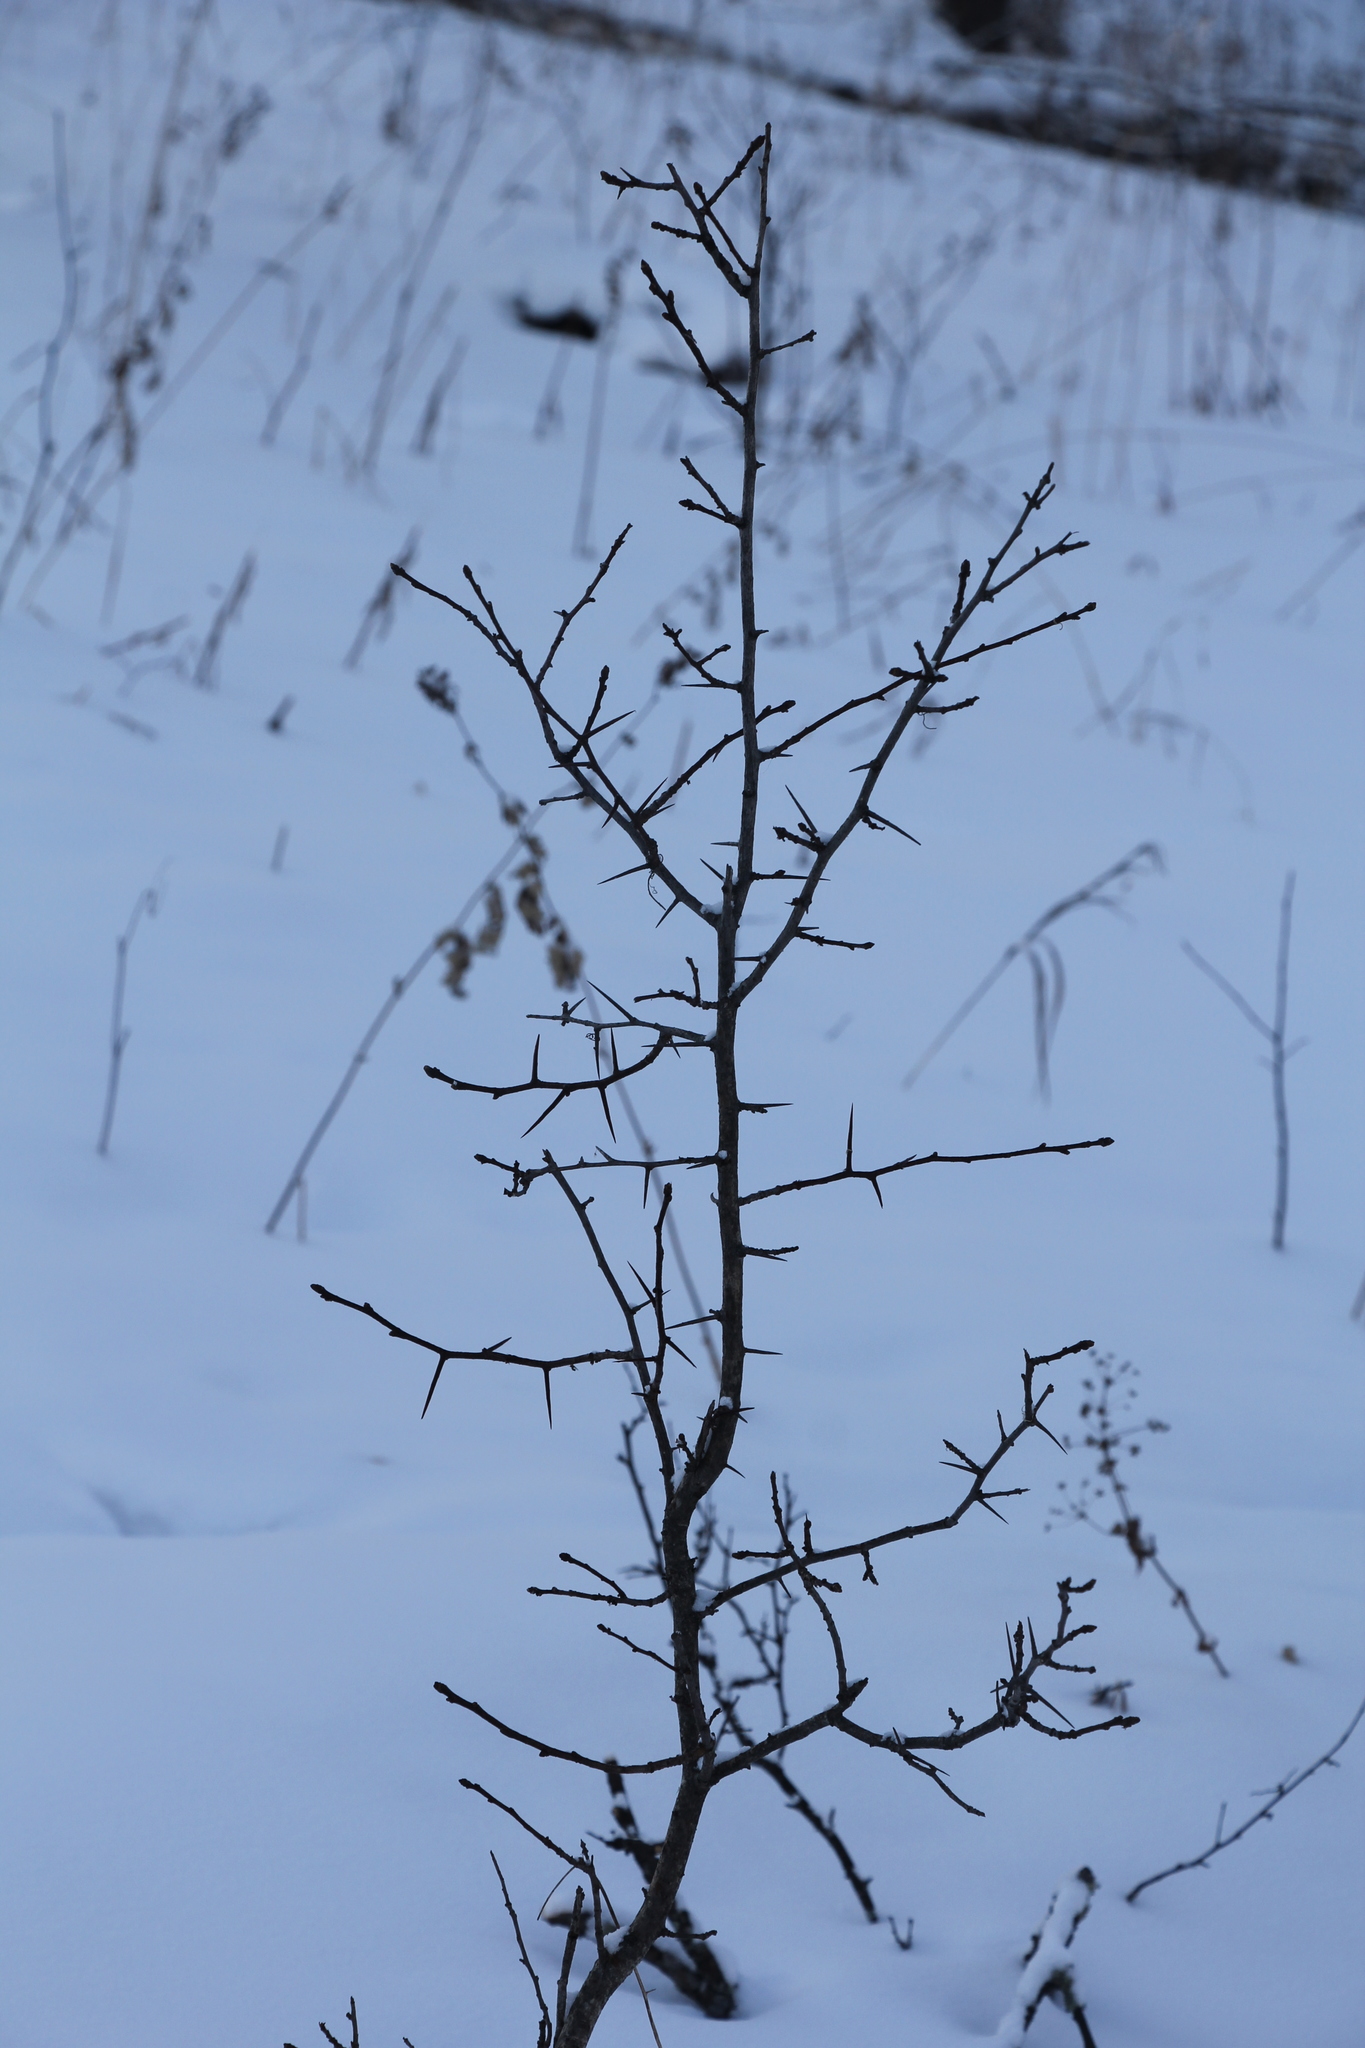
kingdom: Plantae
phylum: Tracheophyta
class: Magnoliopsida
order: Rosales
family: Rosaceae
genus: Crataegus
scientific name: Crataegus sanguinea
